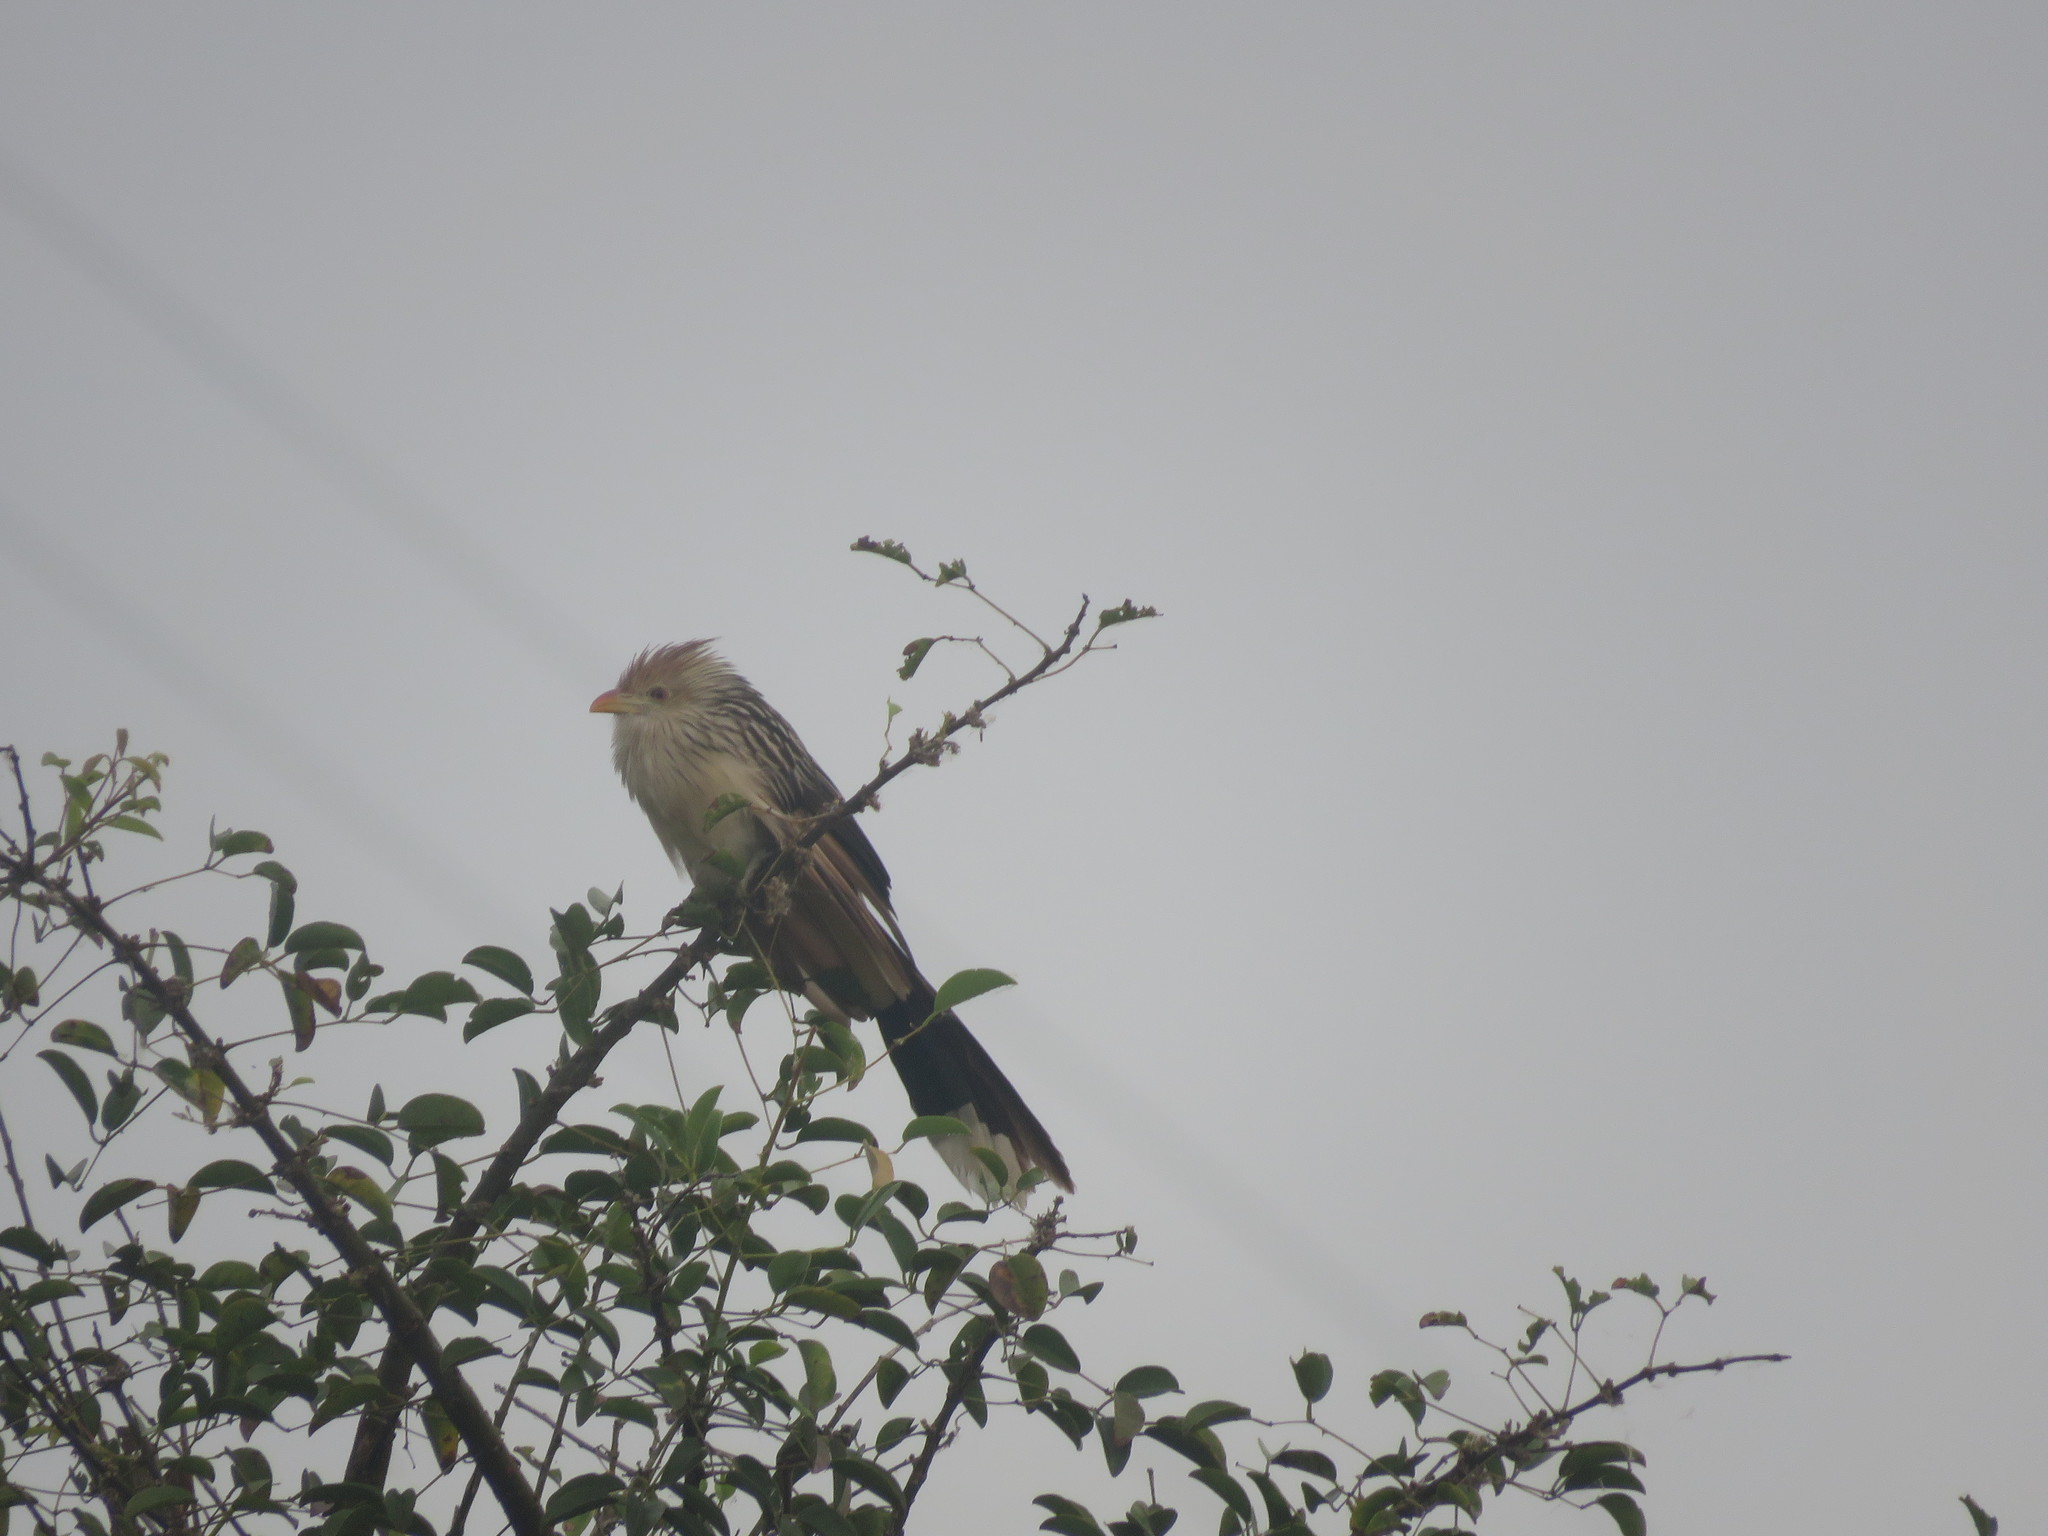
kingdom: Animalia
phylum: Chordata
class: Aves
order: Cuculiformes
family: Cuculidae
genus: Guira
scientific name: Guira guira
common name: Guira cuckoo
